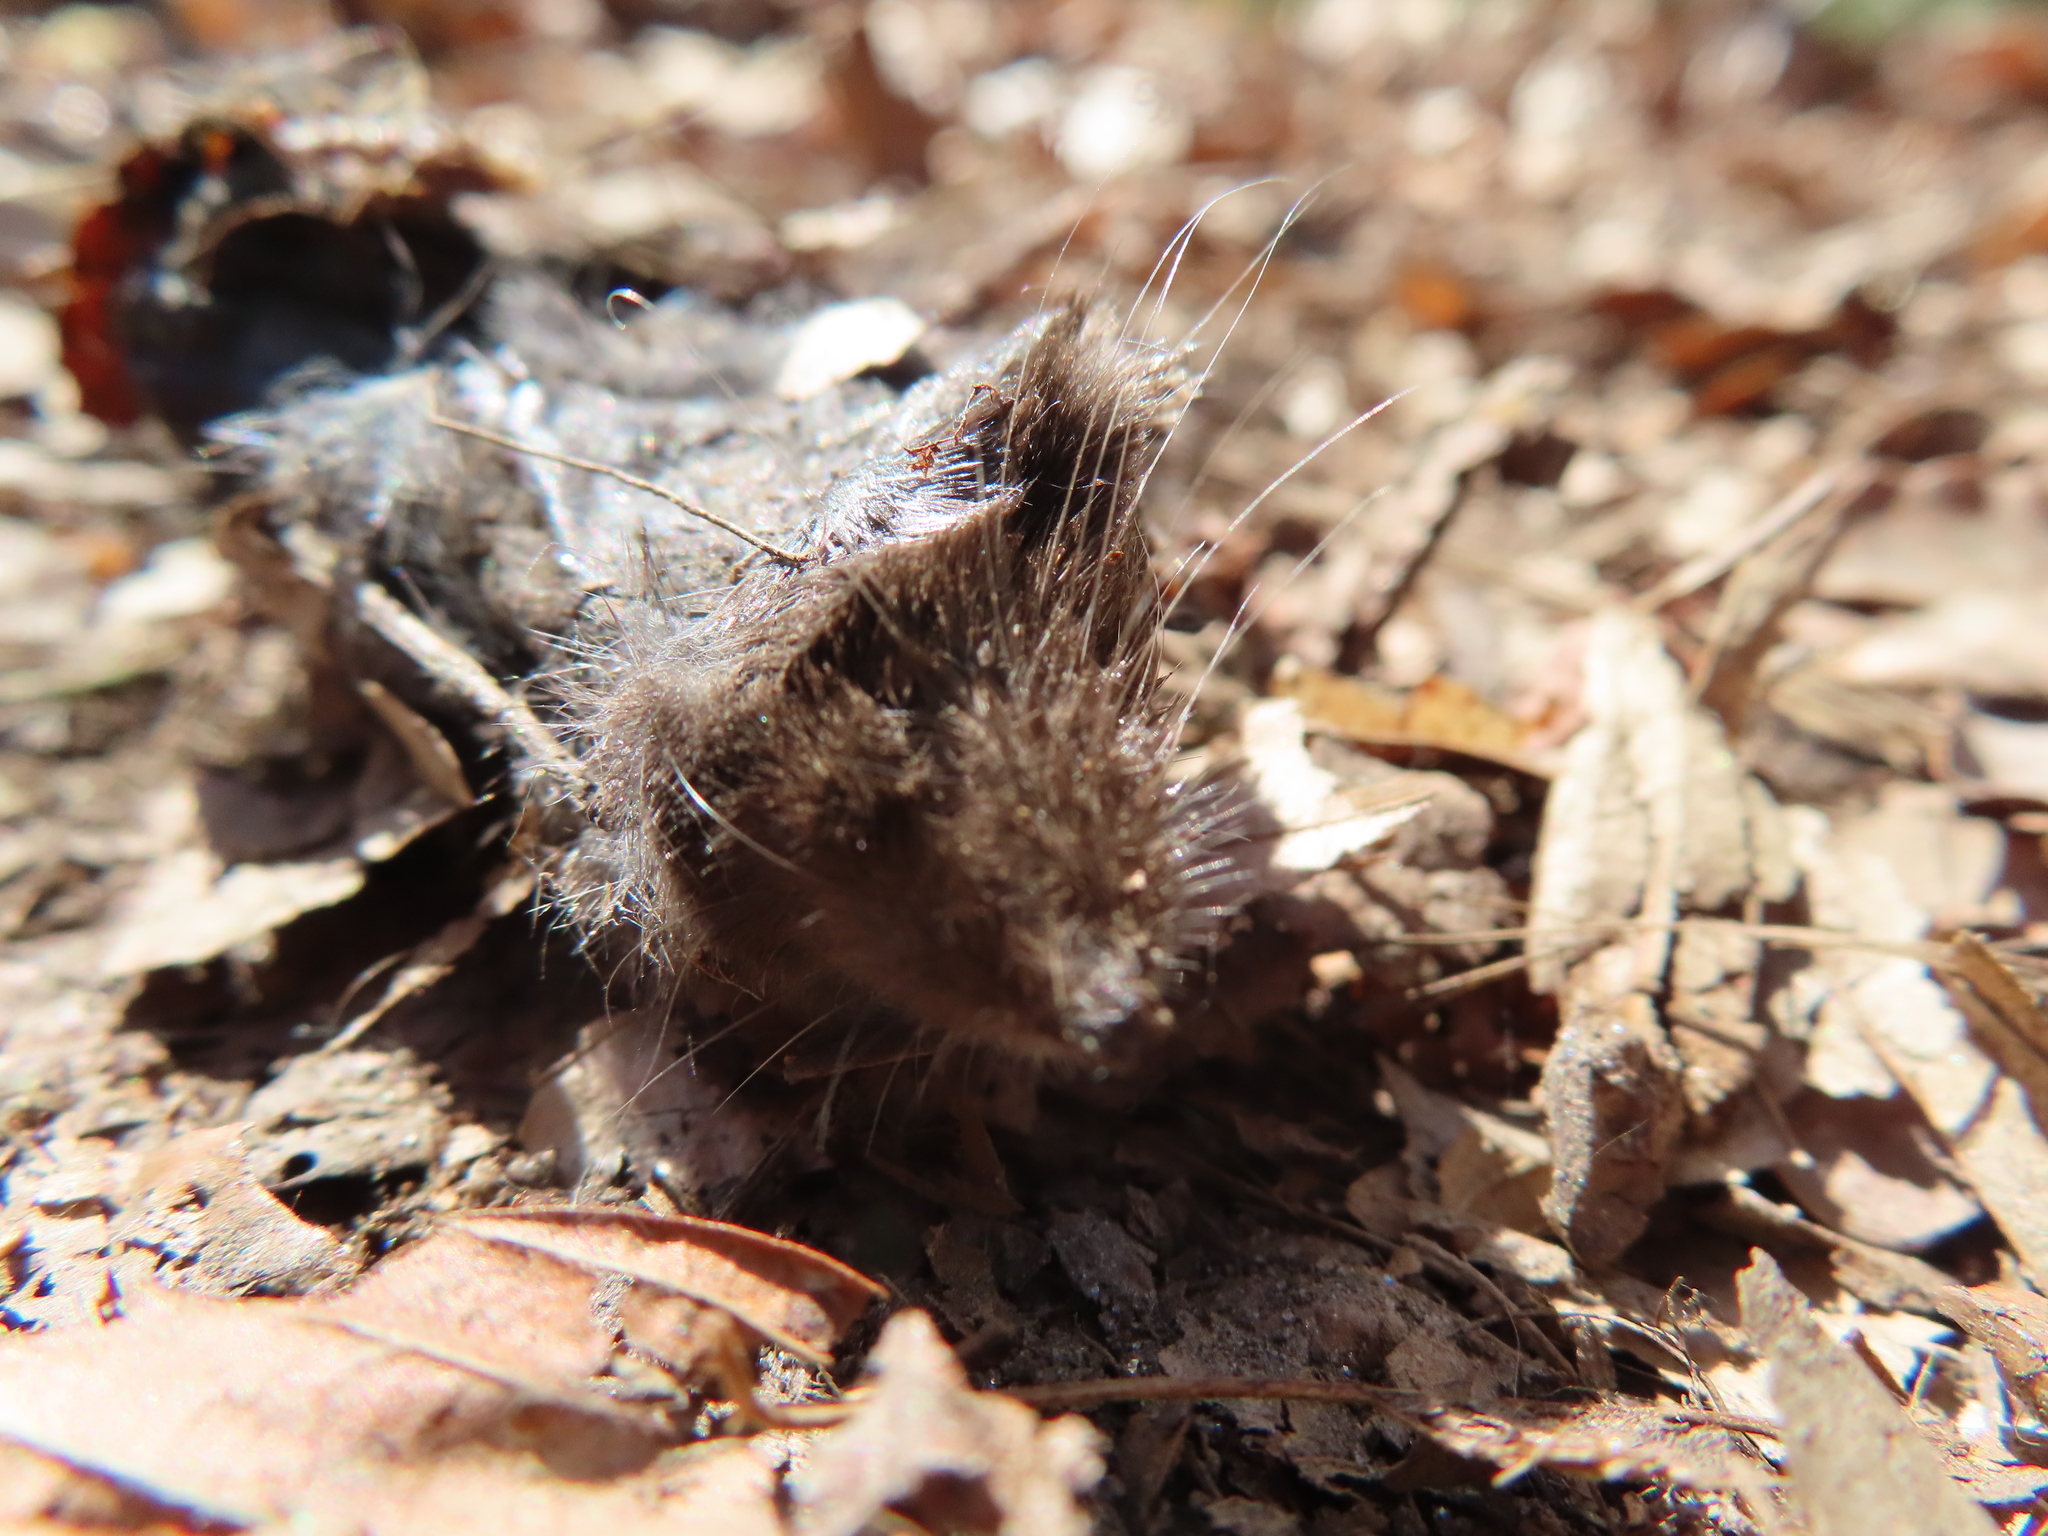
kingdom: Animalia
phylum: Chordata
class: Mammalia
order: Soricomorpha
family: Soricidae
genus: Blarina
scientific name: Blarina brevicauda
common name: Northern short-tailed shrew
